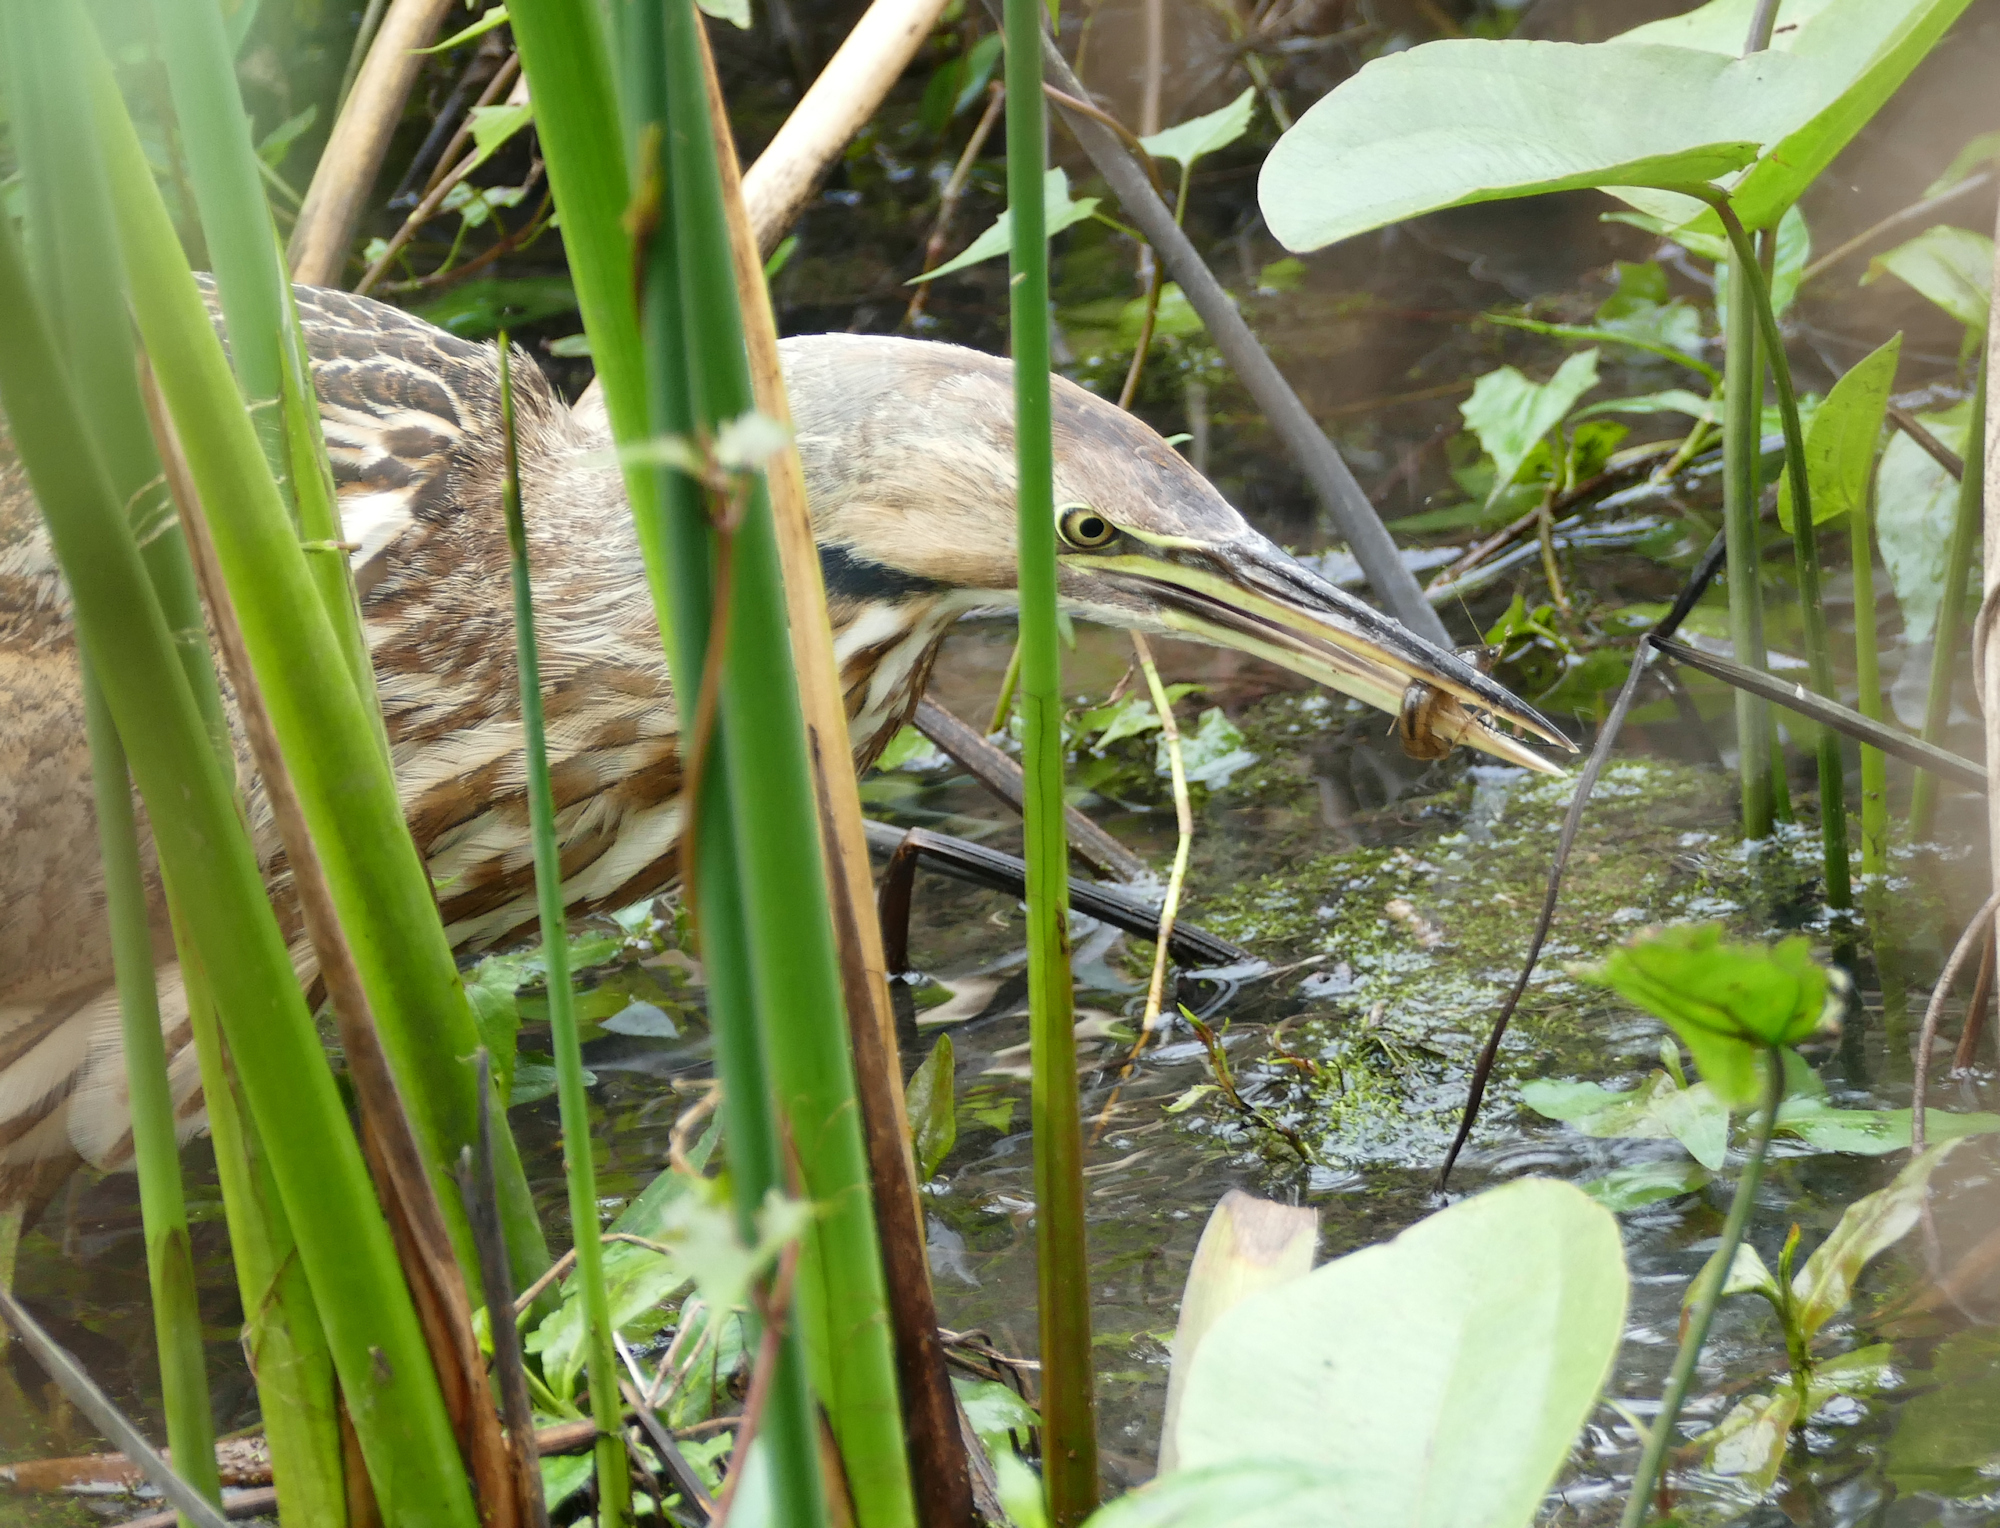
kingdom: Animalia
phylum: Chordata
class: Aves
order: Pelecaniformes
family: Ardeidae
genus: Botaurus
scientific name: Botaurus lentiginosus
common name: American bittern
